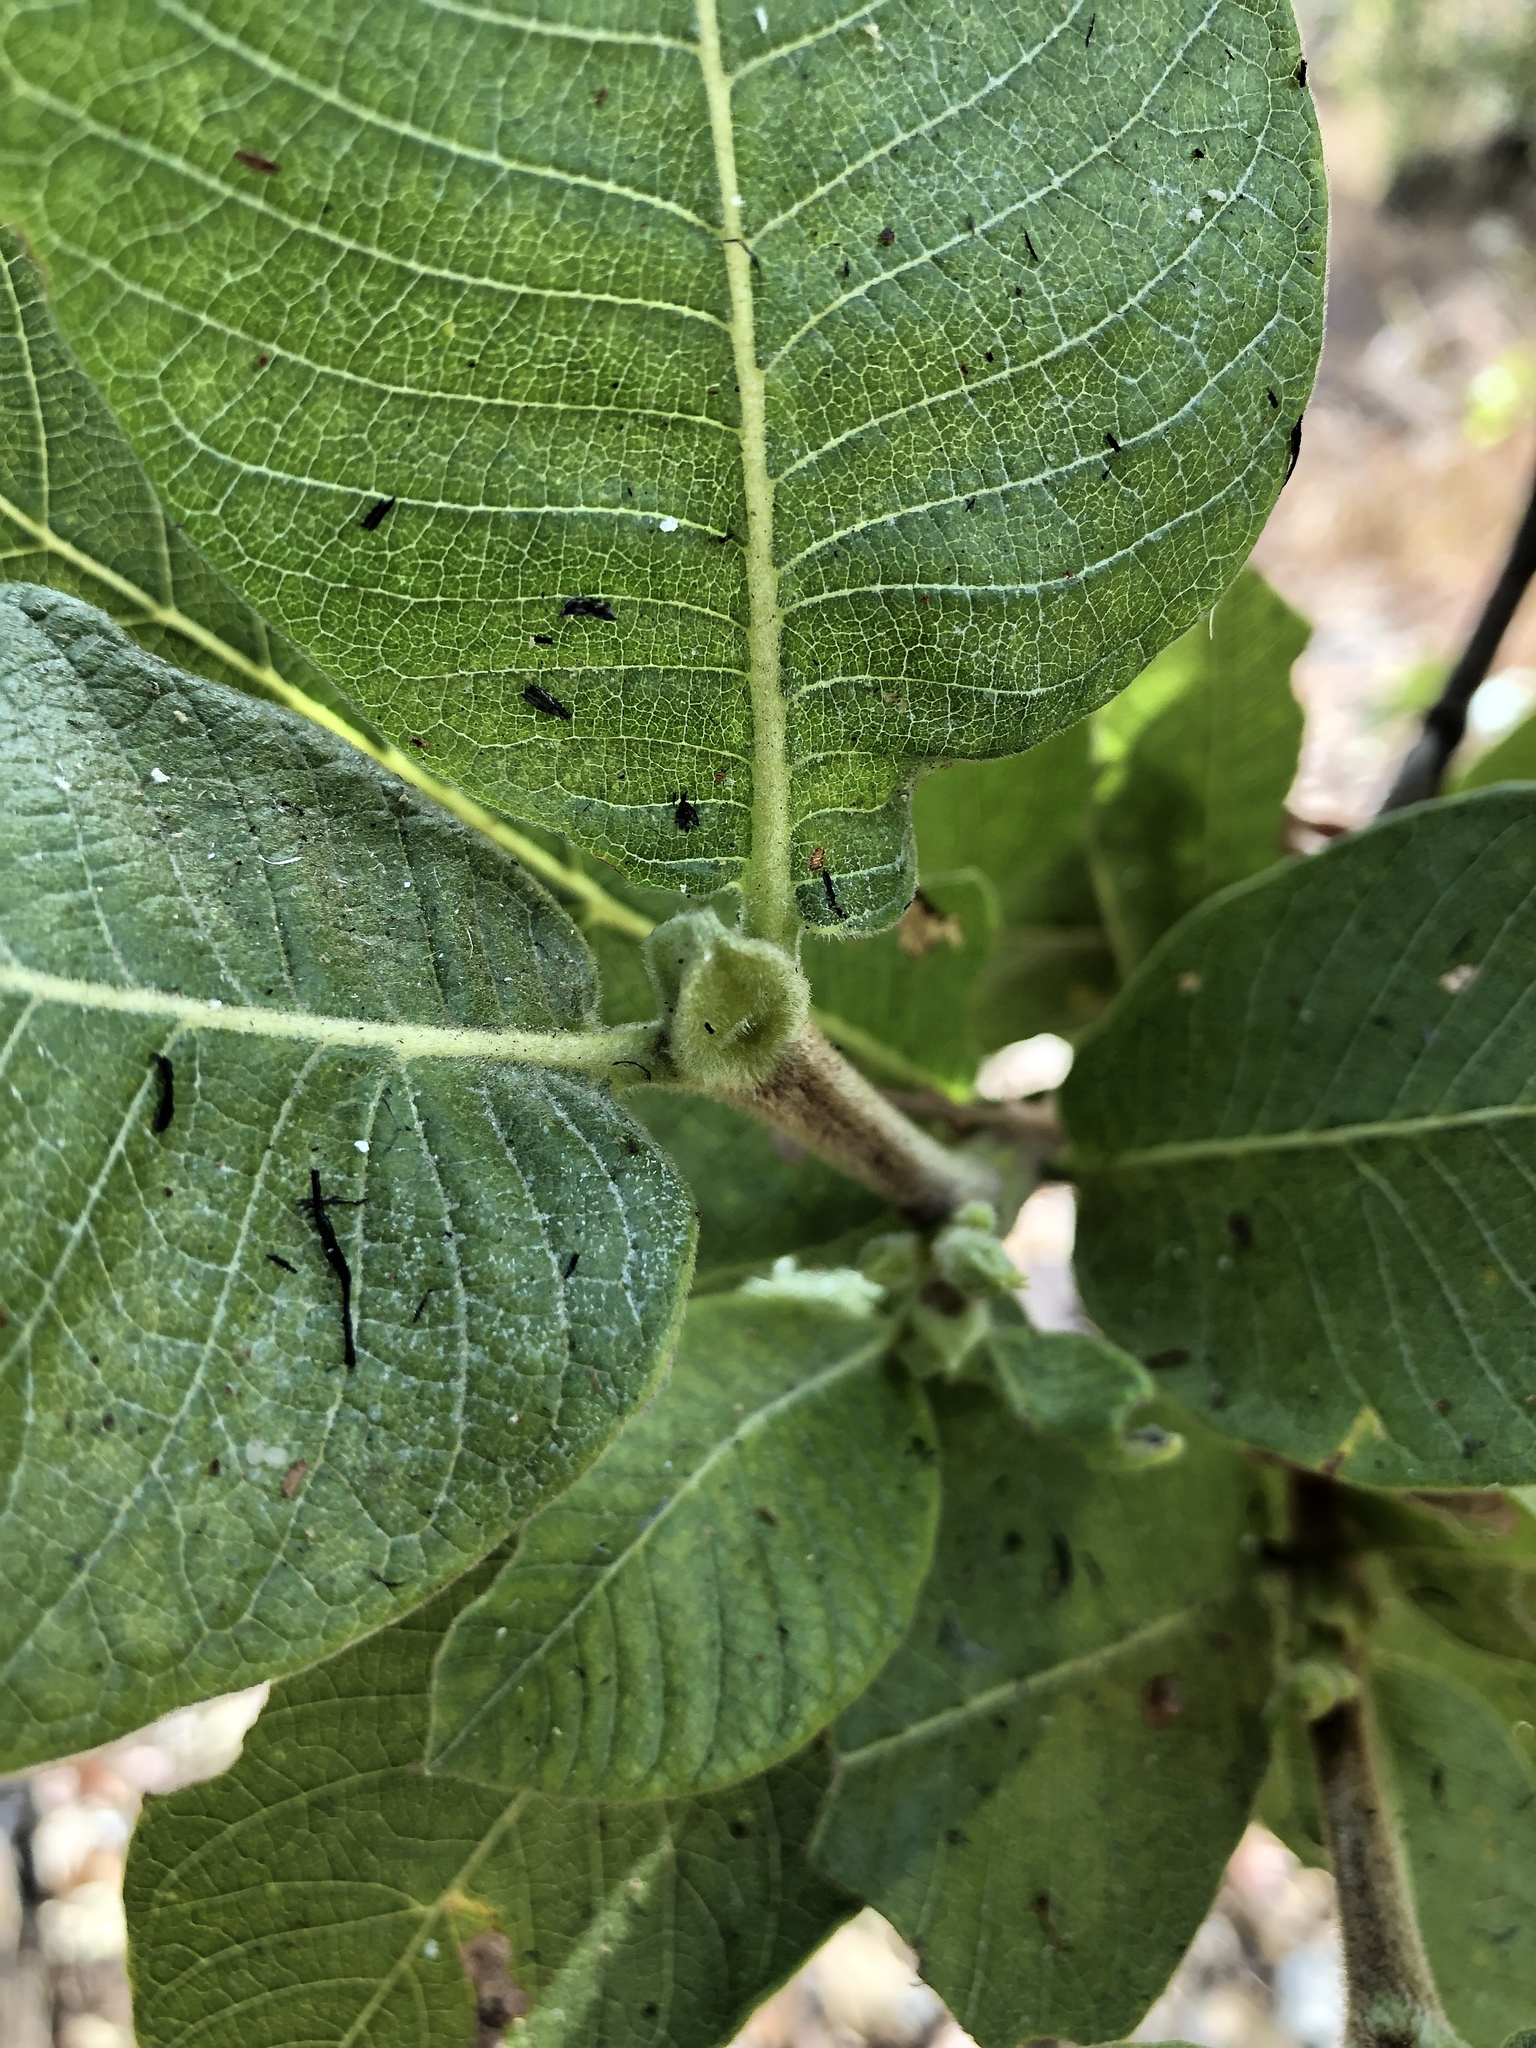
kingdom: Plantae
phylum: Tracheophyta
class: Magnoliopsida
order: Gentianales
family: Rubiaceae
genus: Larsenaikia
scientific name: Larsenaikia ochreata
